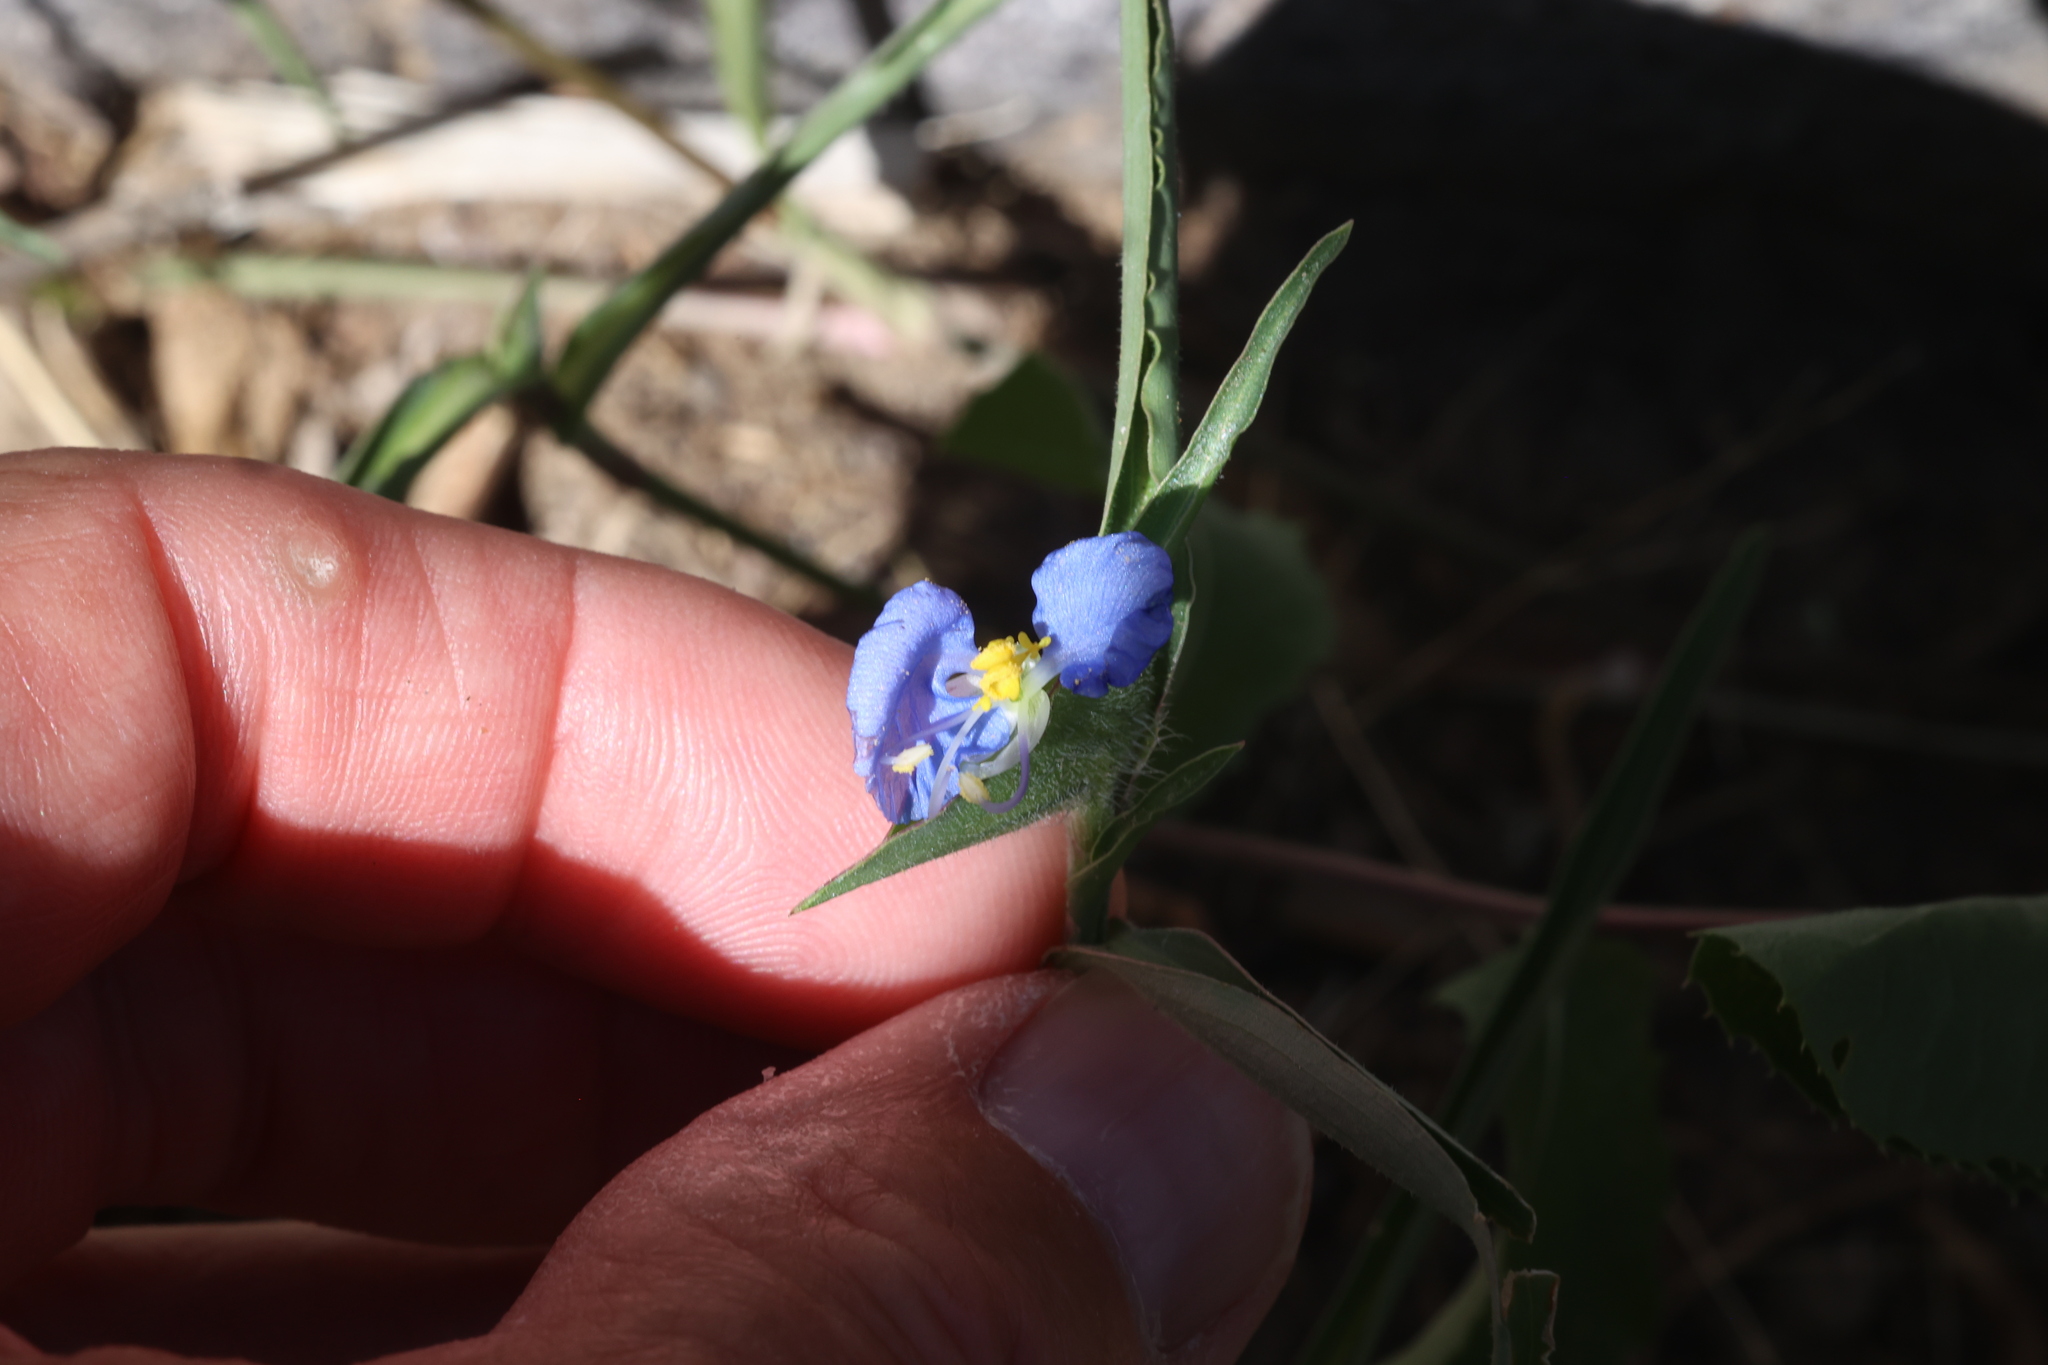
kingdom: Plantae
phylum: Tracheophyta
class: Liliopsida
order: Commelinales
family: Commelinaceae
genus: Commelina
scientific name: Commelina erecta
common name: Blousel blommetjie
